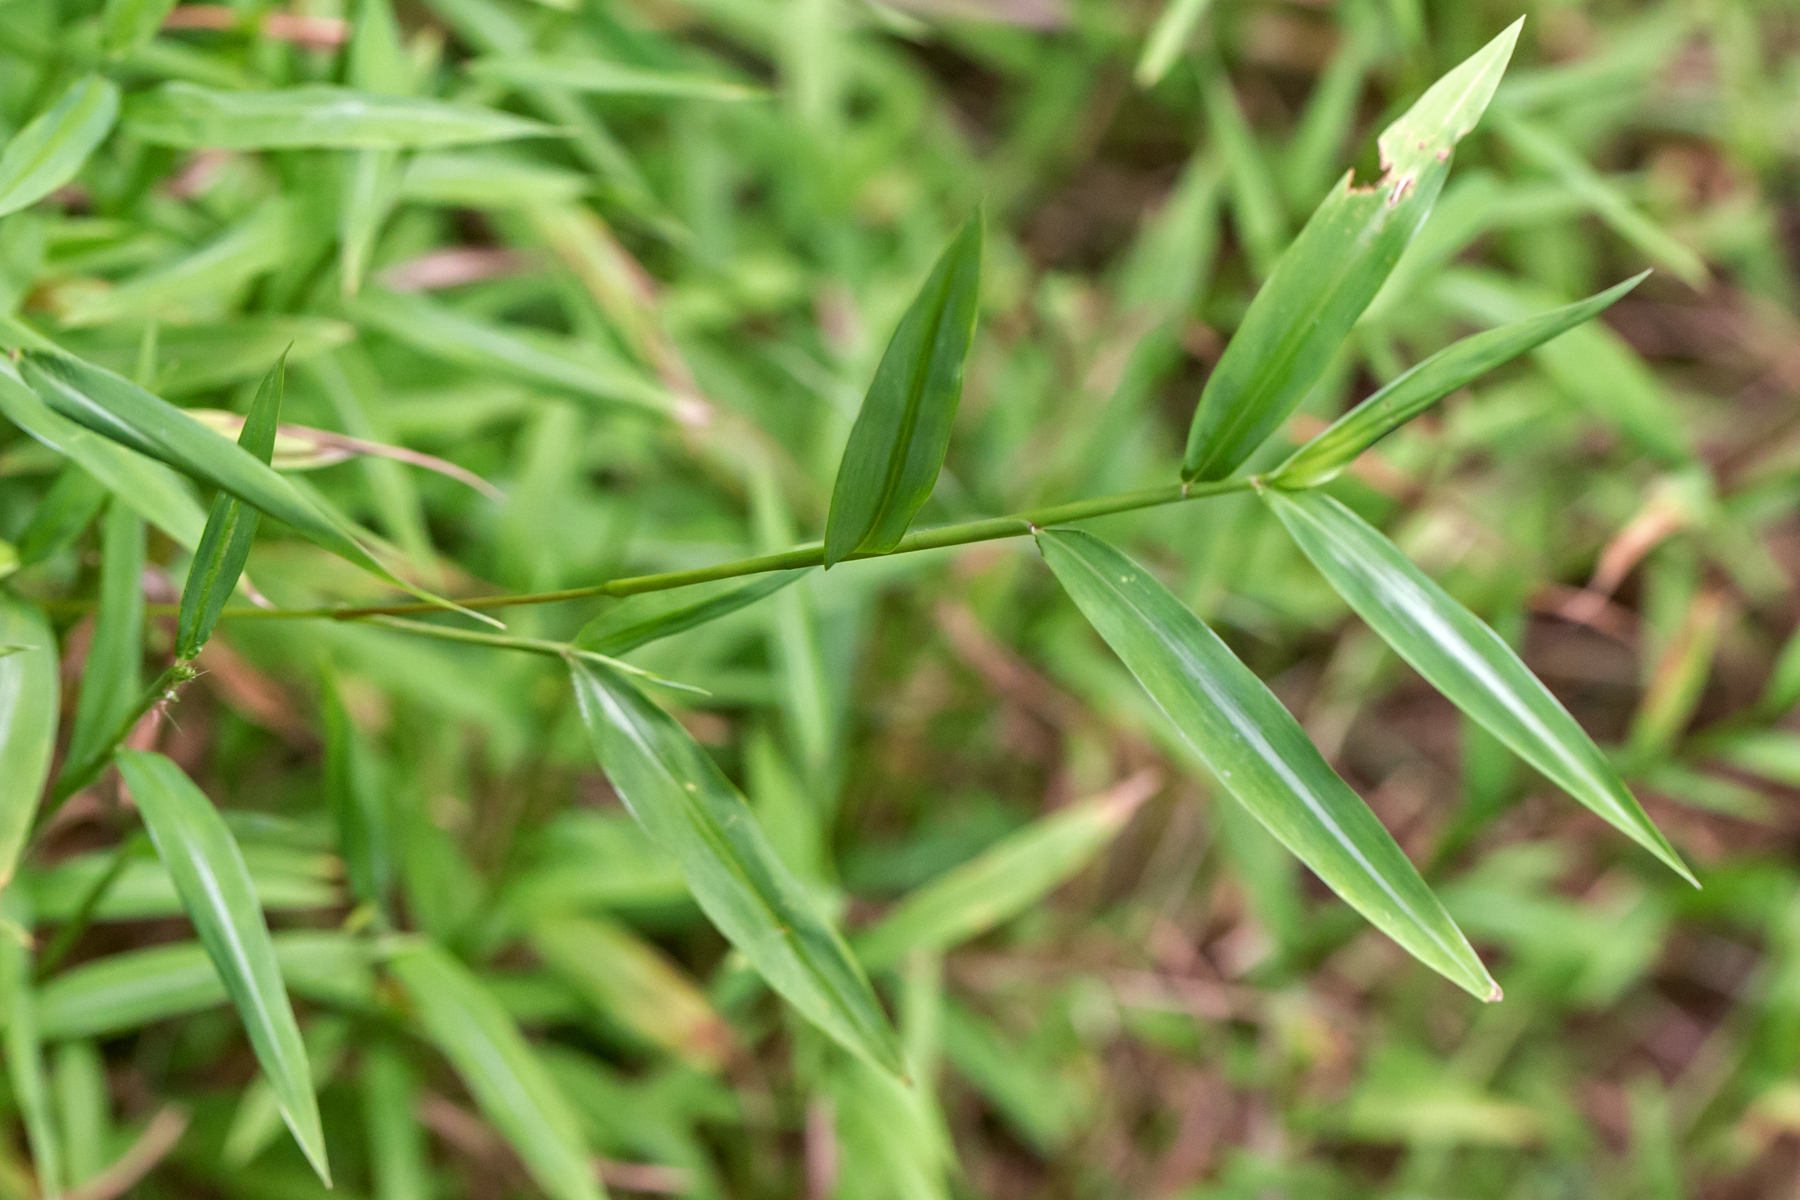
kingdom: Plantae
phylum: Tracheophyta
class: Liliopsida
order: Poales
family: Poaceae
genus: Microstegium
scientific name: Microstegium vimineum
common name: Japanese stiltgrass
